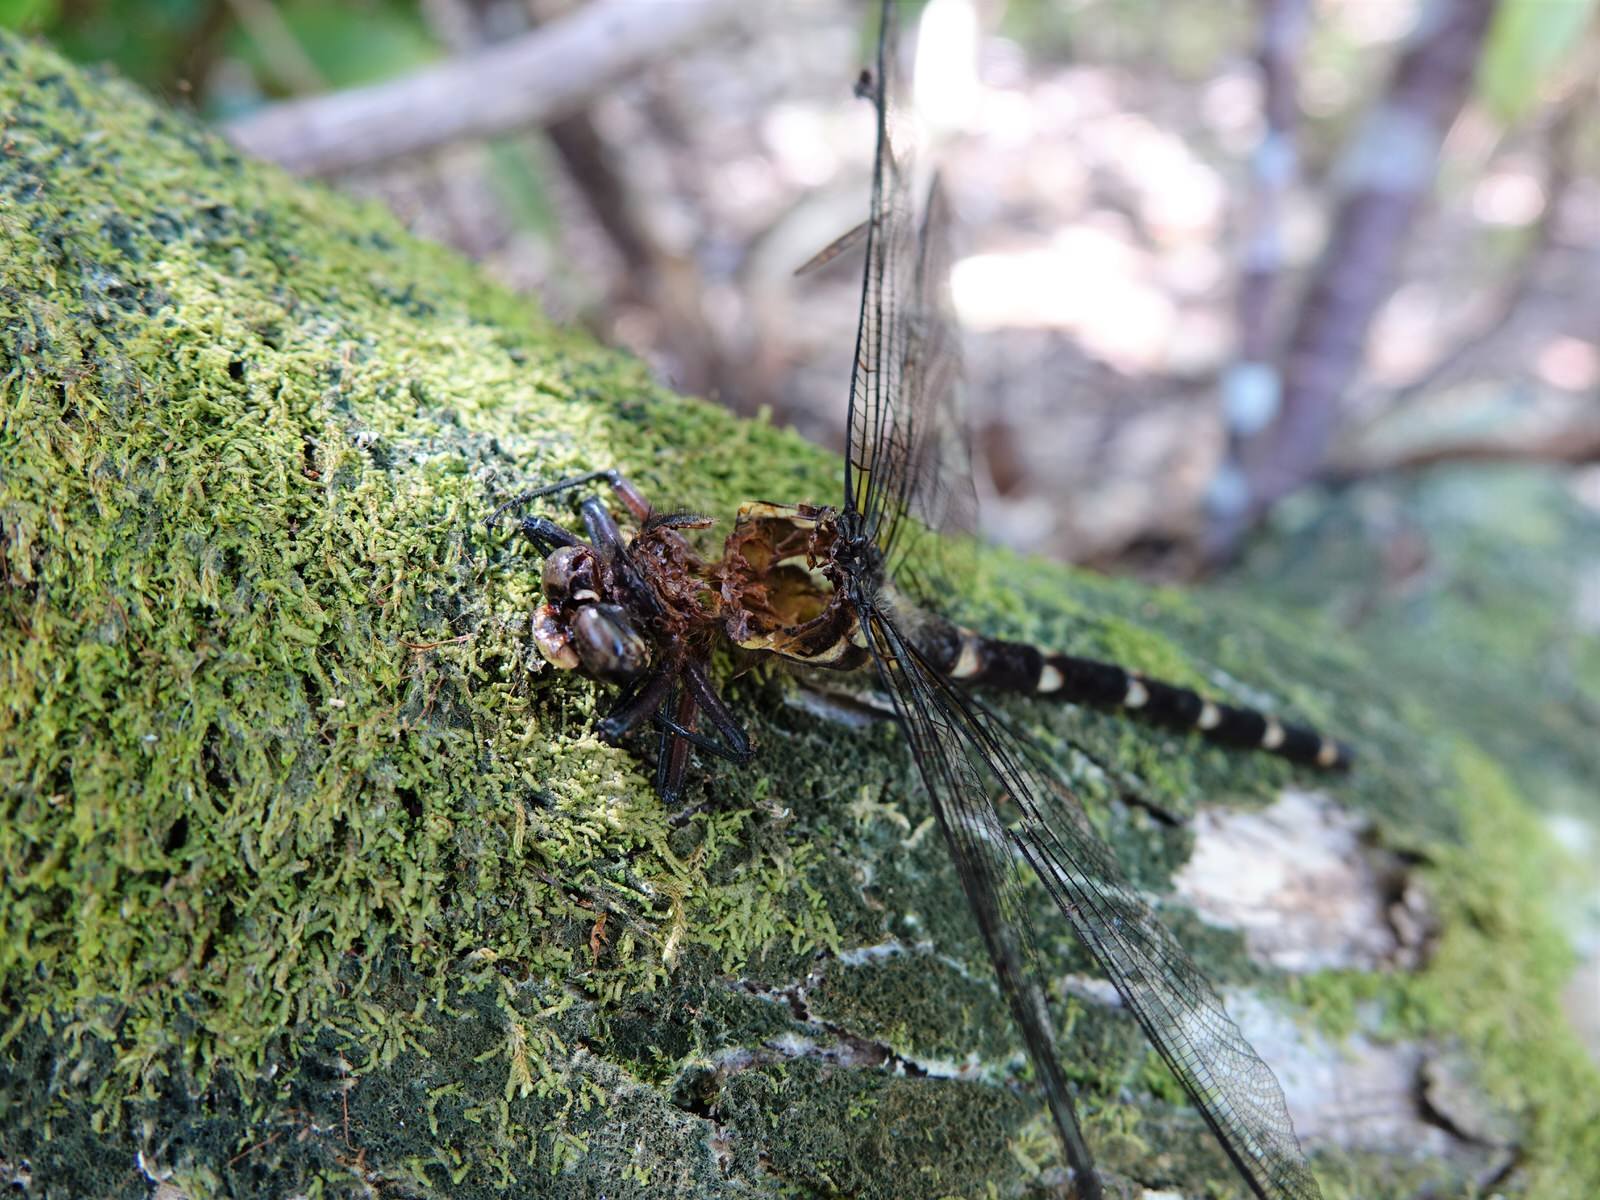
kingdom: Animalia
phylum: Arthropoda
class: Insecta
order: Odonata
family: Petaluridae
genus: Uropetala
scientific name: Uropetala carovei
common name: Bush giant dragonfly
